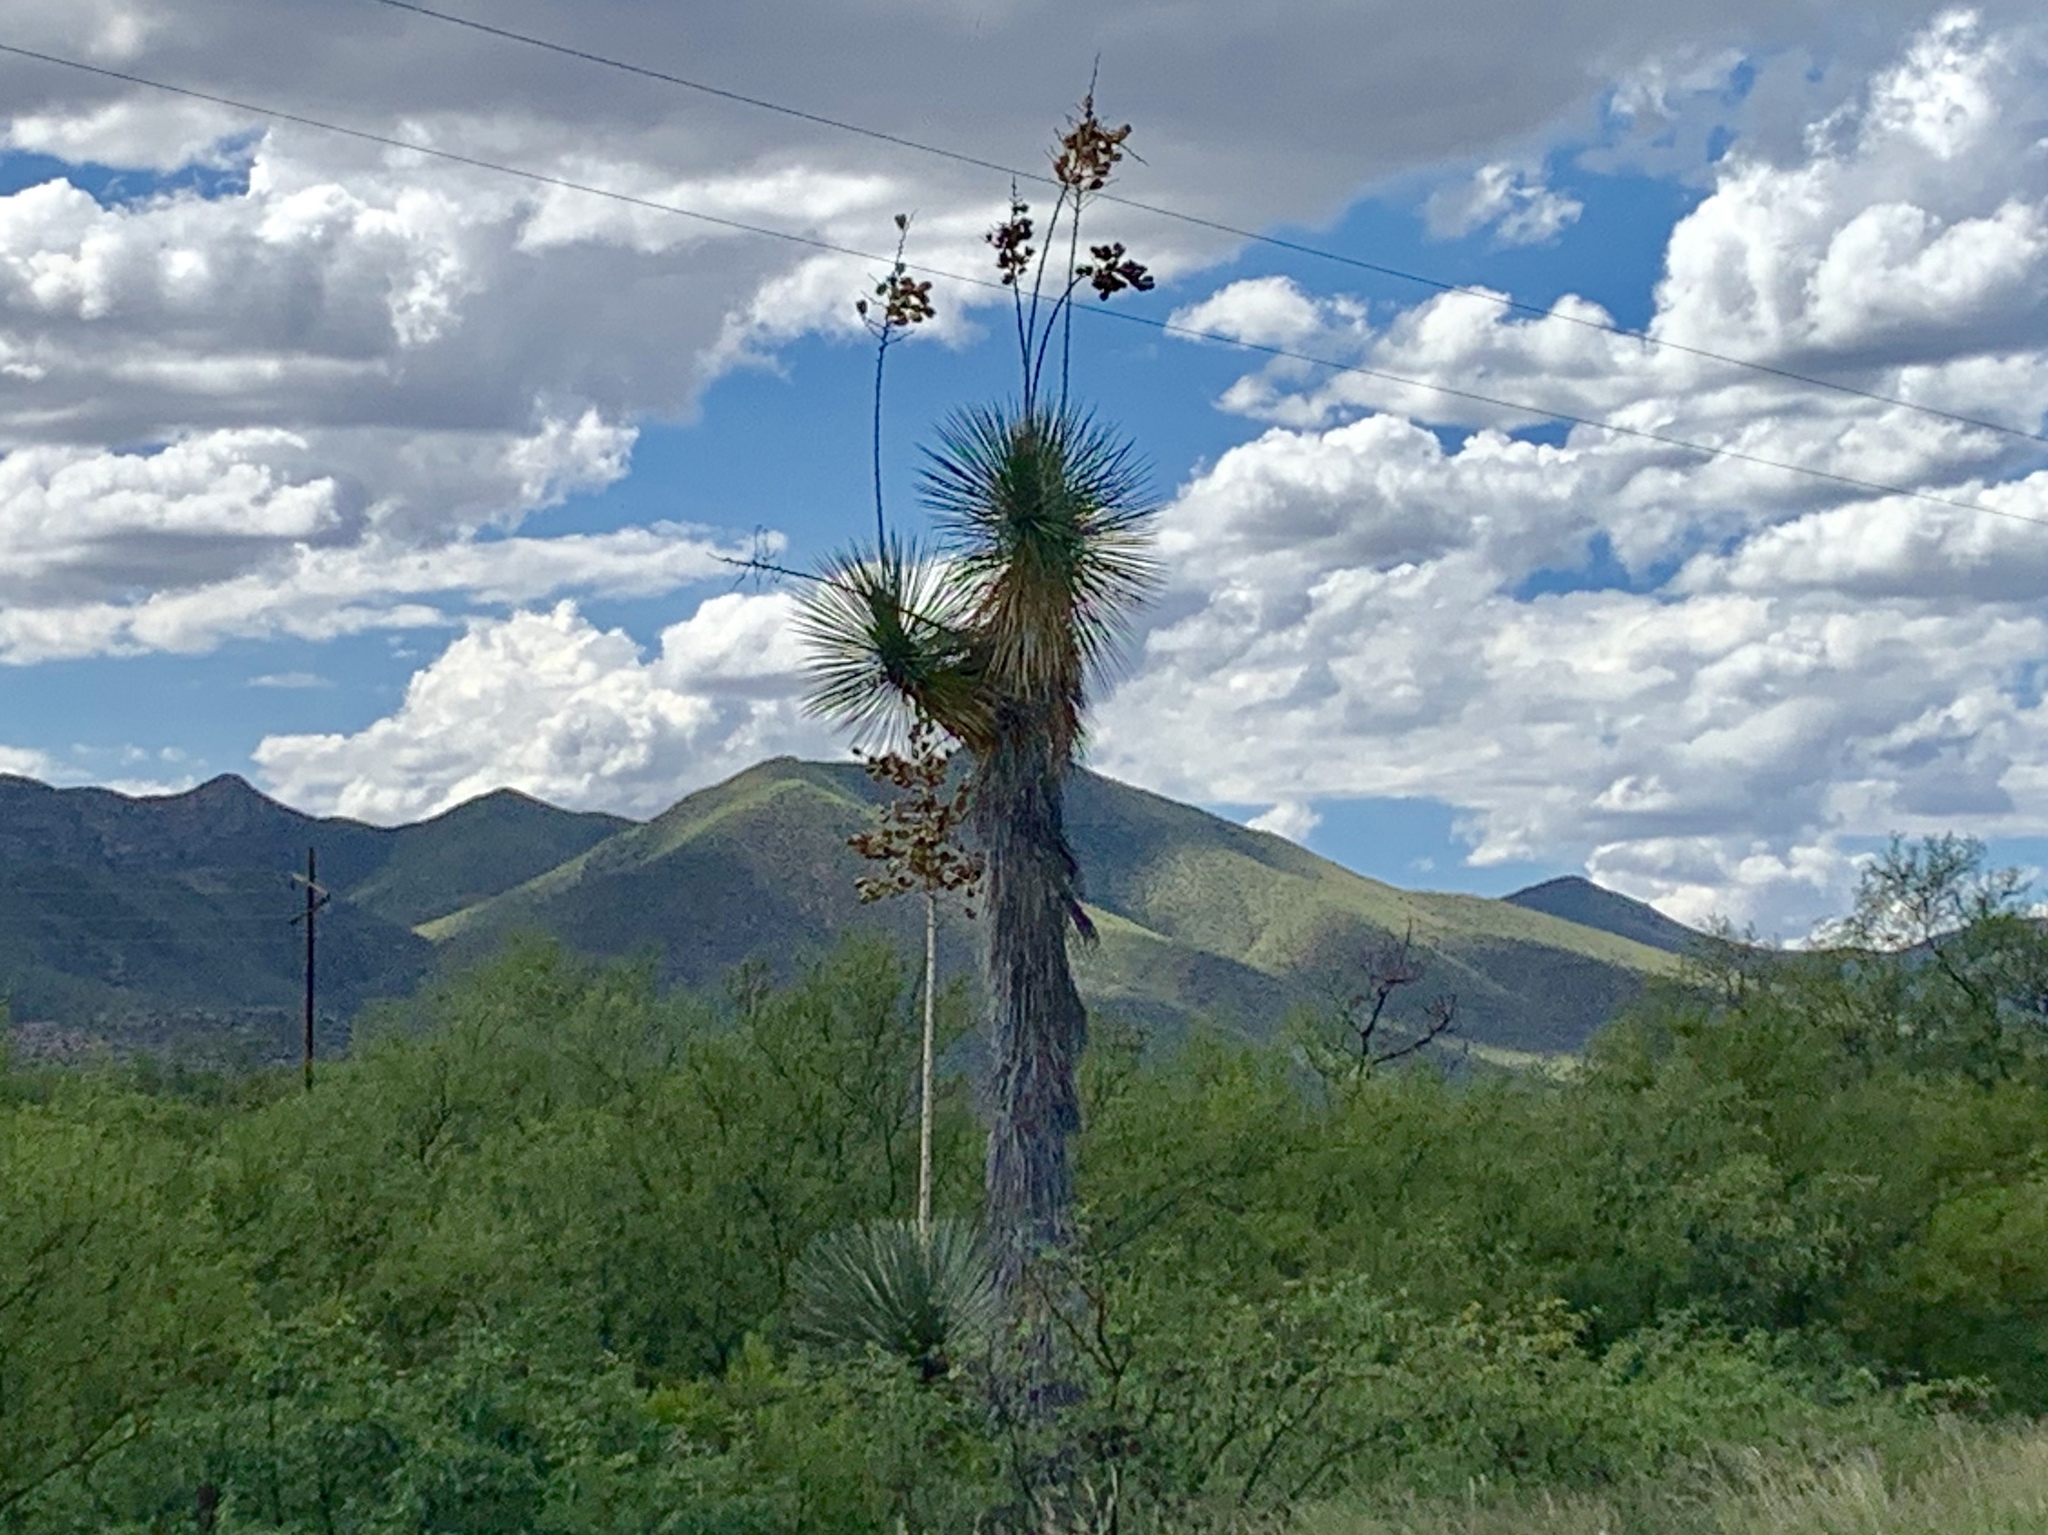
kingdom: Plantae
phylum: Tracheophyta
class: Liliopsida
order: Asparagales
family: Asparagaceae
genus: Yucca
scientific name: Yucca elata
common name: Palmella
